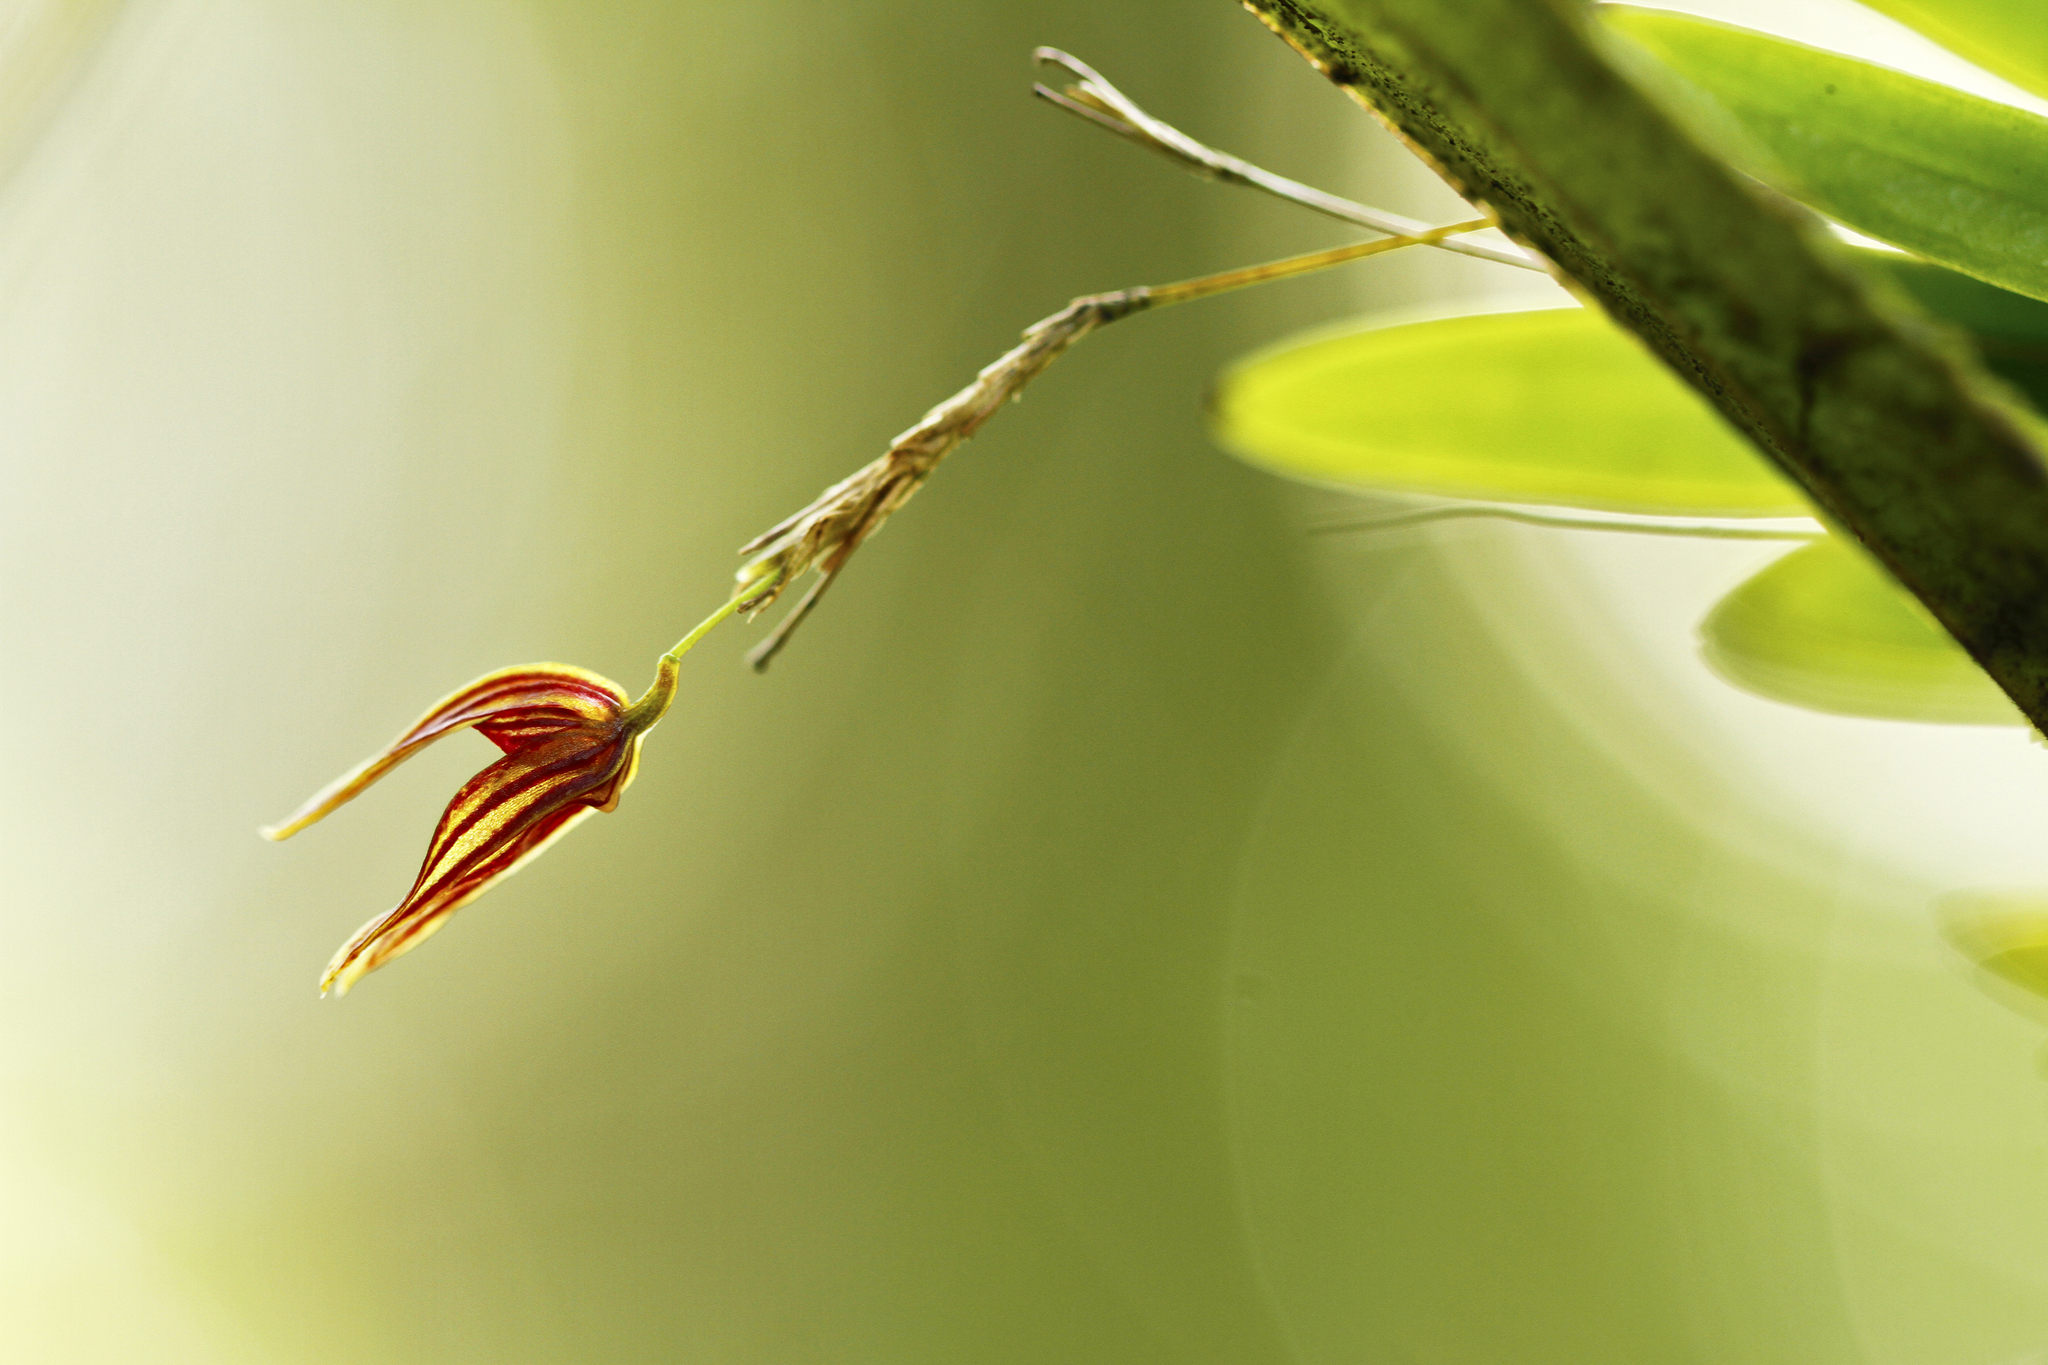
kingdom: Plantae
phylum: Tracheophyta
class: Liliopsida
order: Asparagales
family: Orchidaceae
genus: Specklinia
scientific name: Specklinia simmleriana
